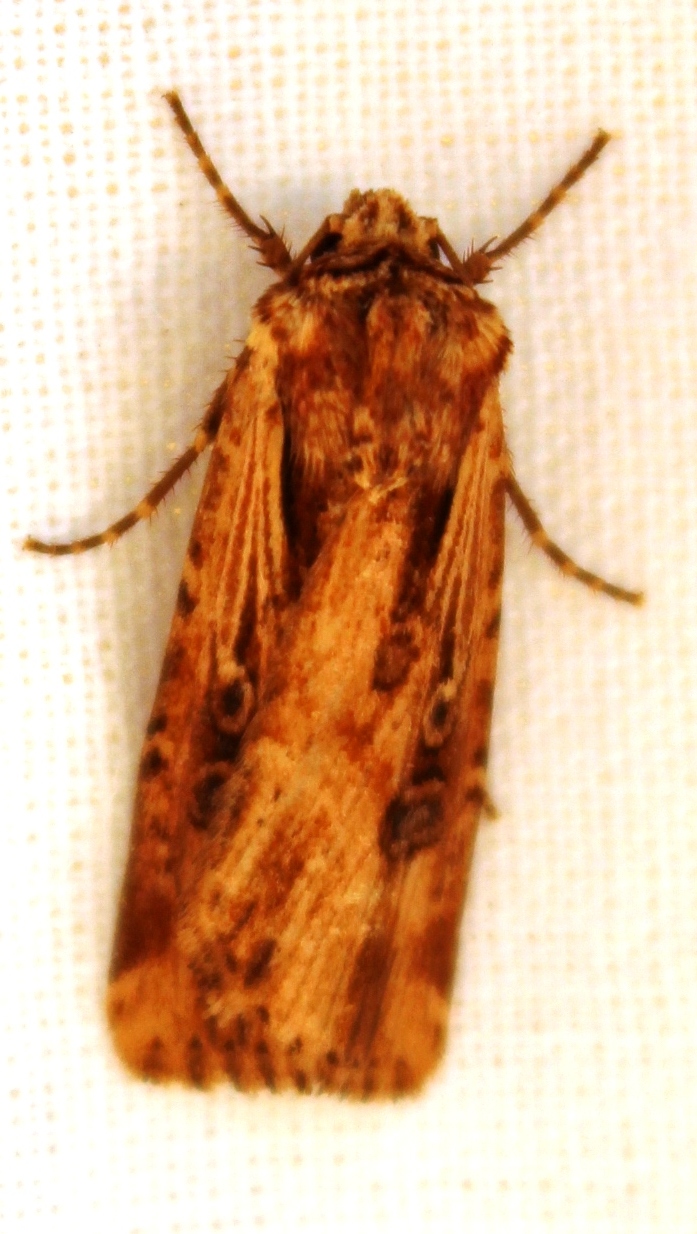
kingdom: Animalia
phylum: Arthropoda
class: Insecta
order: Lepidoptera
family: Noctuidae
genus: Axylia
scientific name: Axylia annularis
